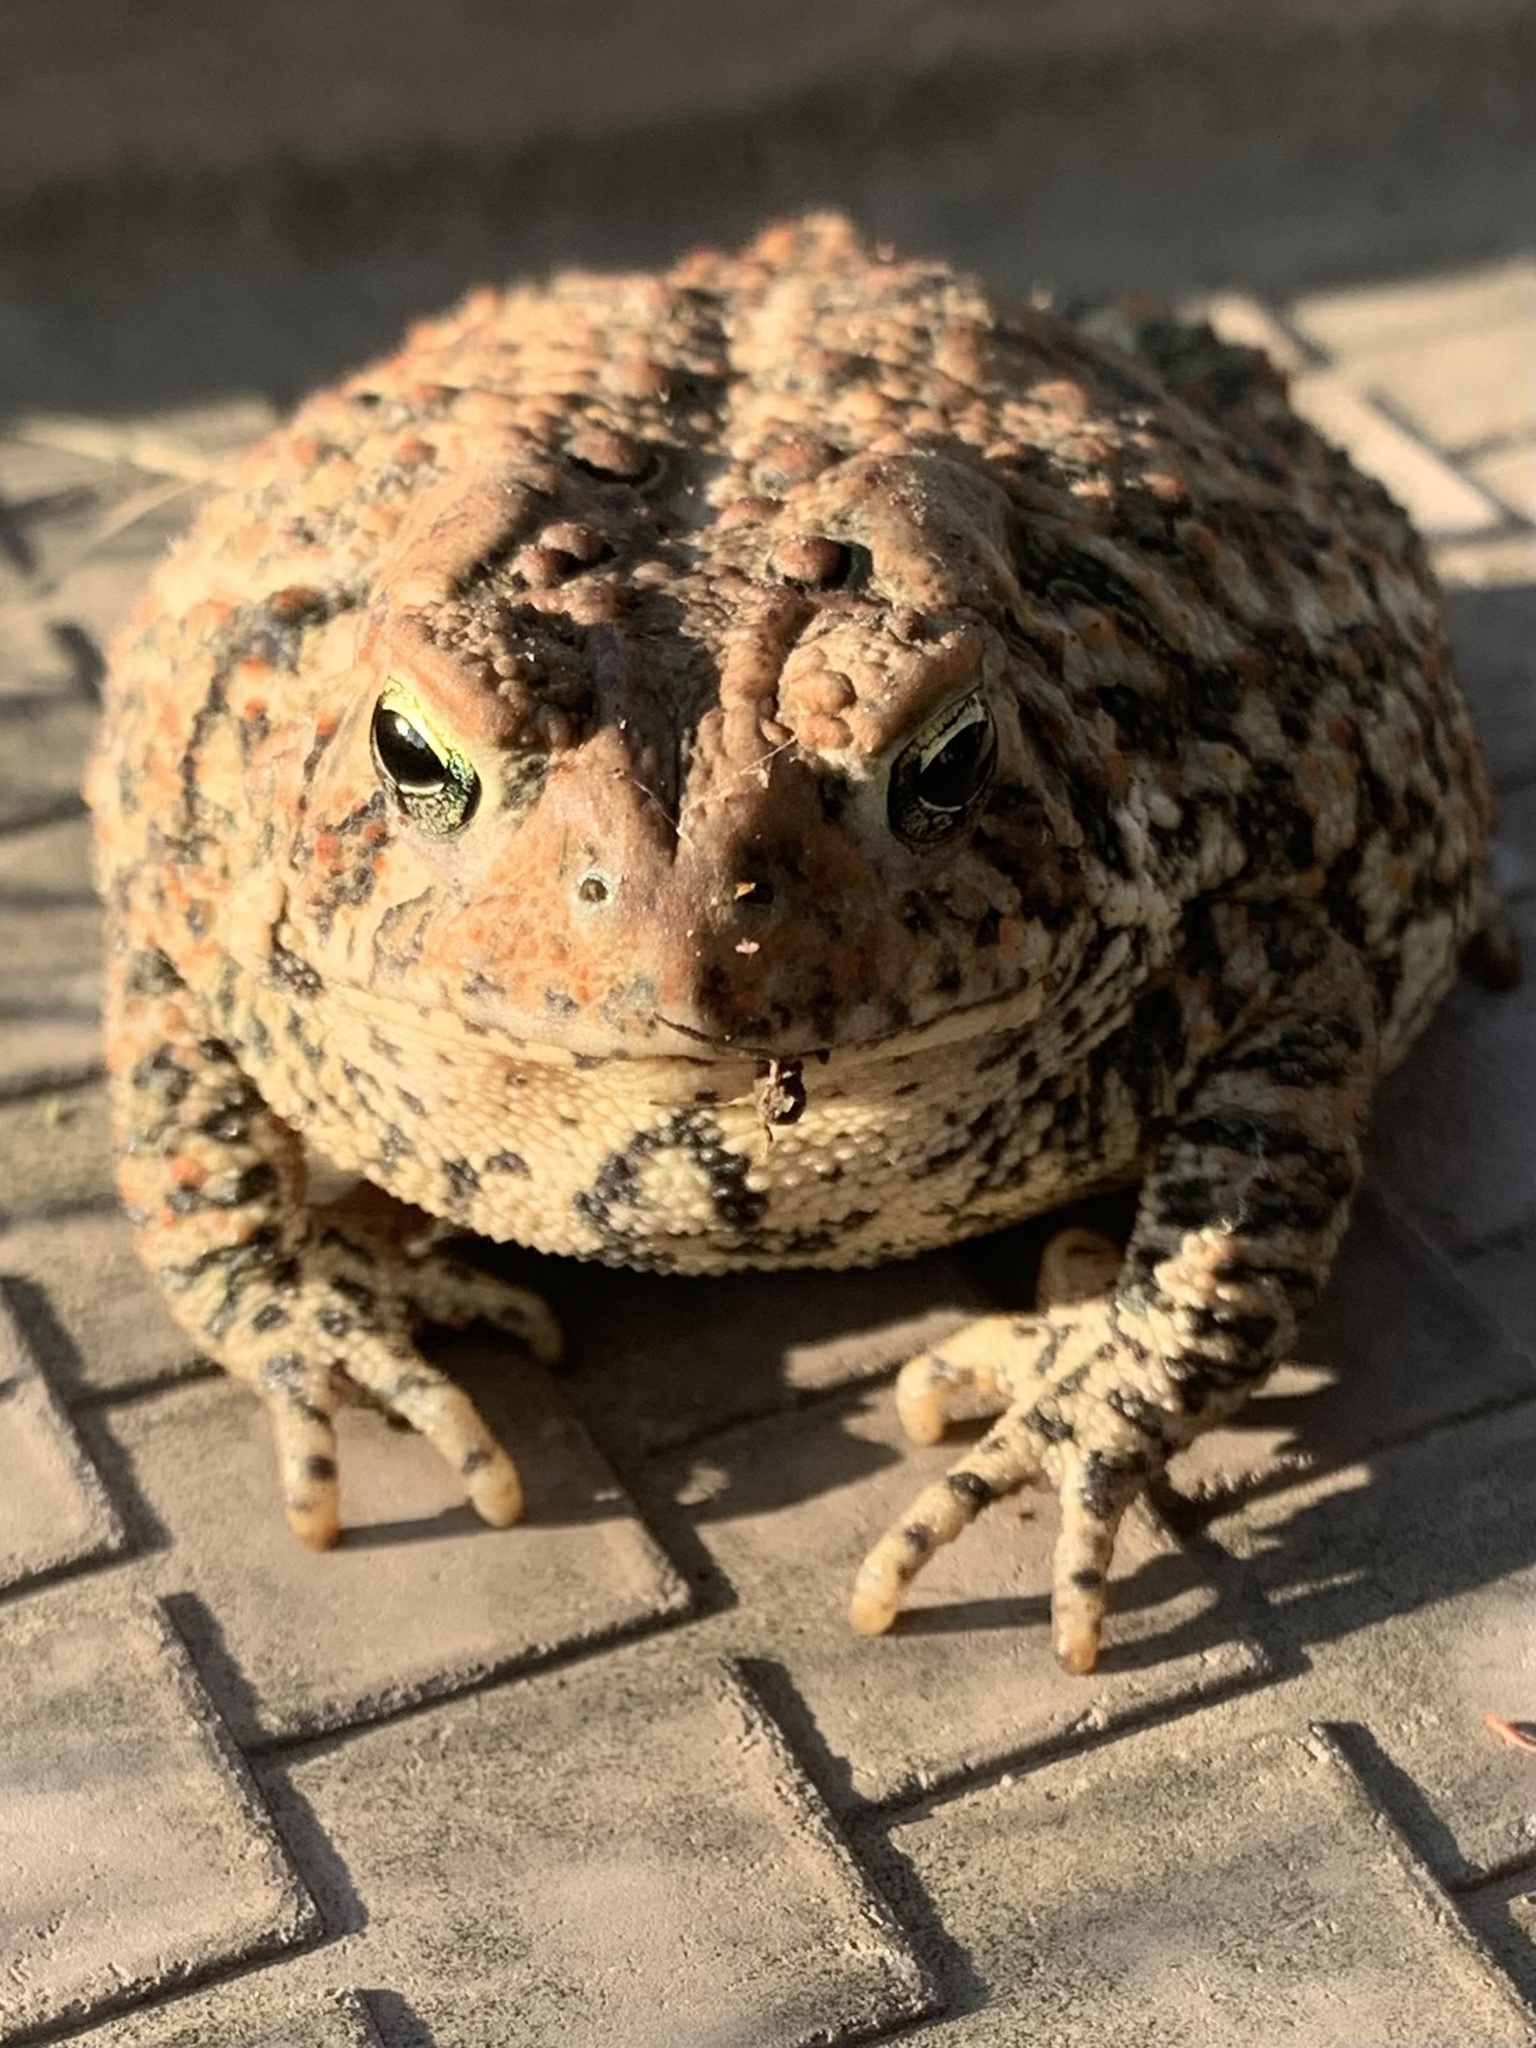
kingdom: Animalia
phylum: Chordata
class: Amphibia
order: Anura
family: Bufonidae
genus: Anaxyrus
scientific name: Anaxyrus americanus
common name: American toad
